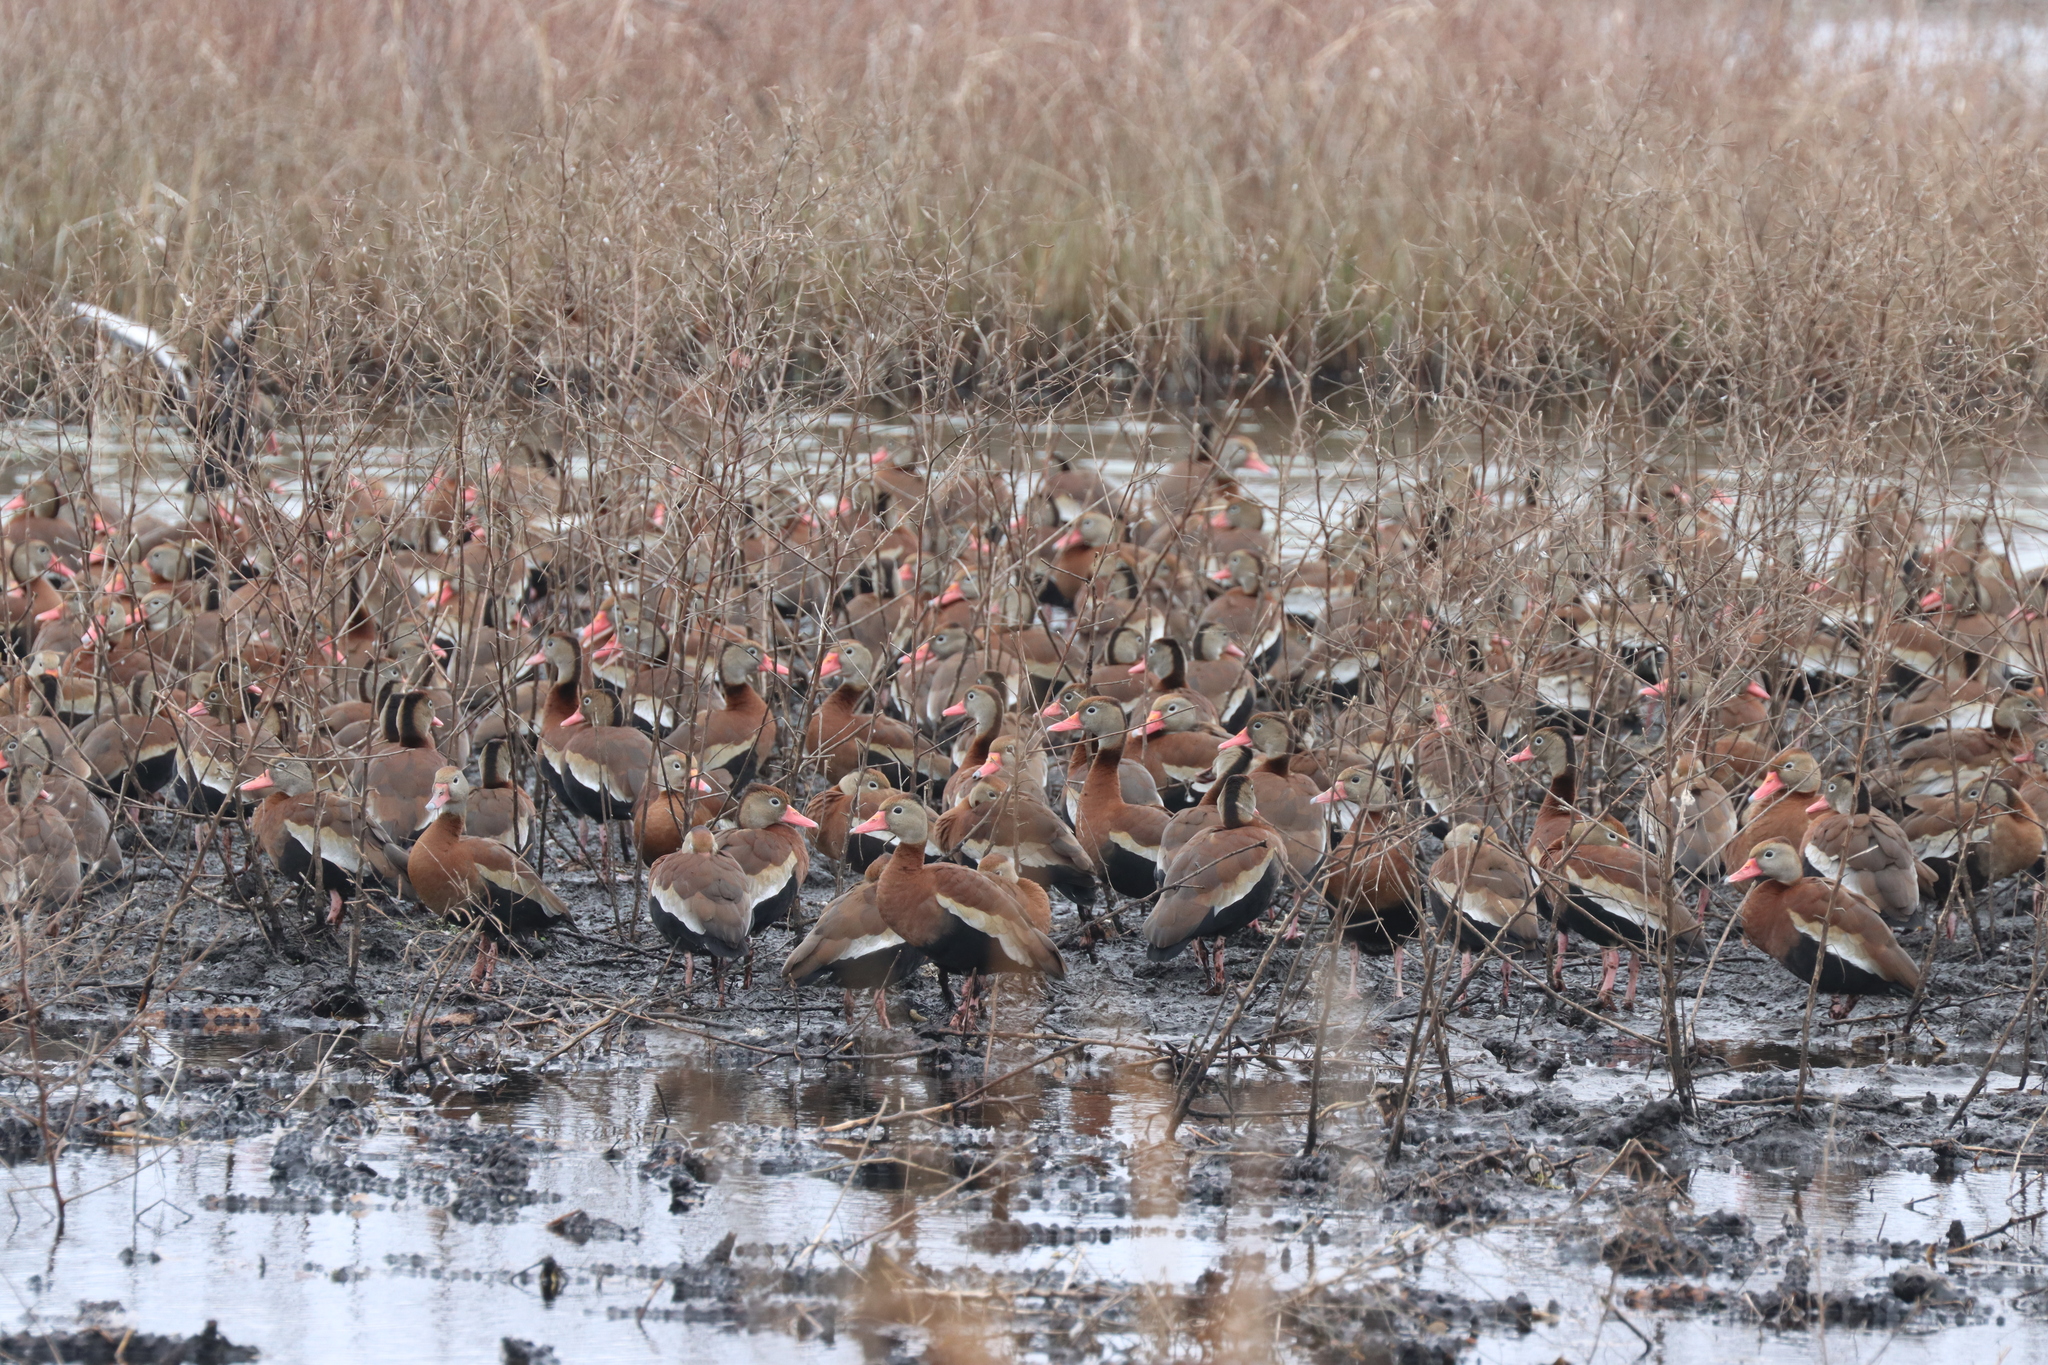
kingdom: Animalia
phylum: Chordata
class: Aves
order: Anseriformes
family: Anatidae
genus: Dendrocygna
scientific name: Dendrocygna autumnalis
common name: Black-bellied whistling duck
